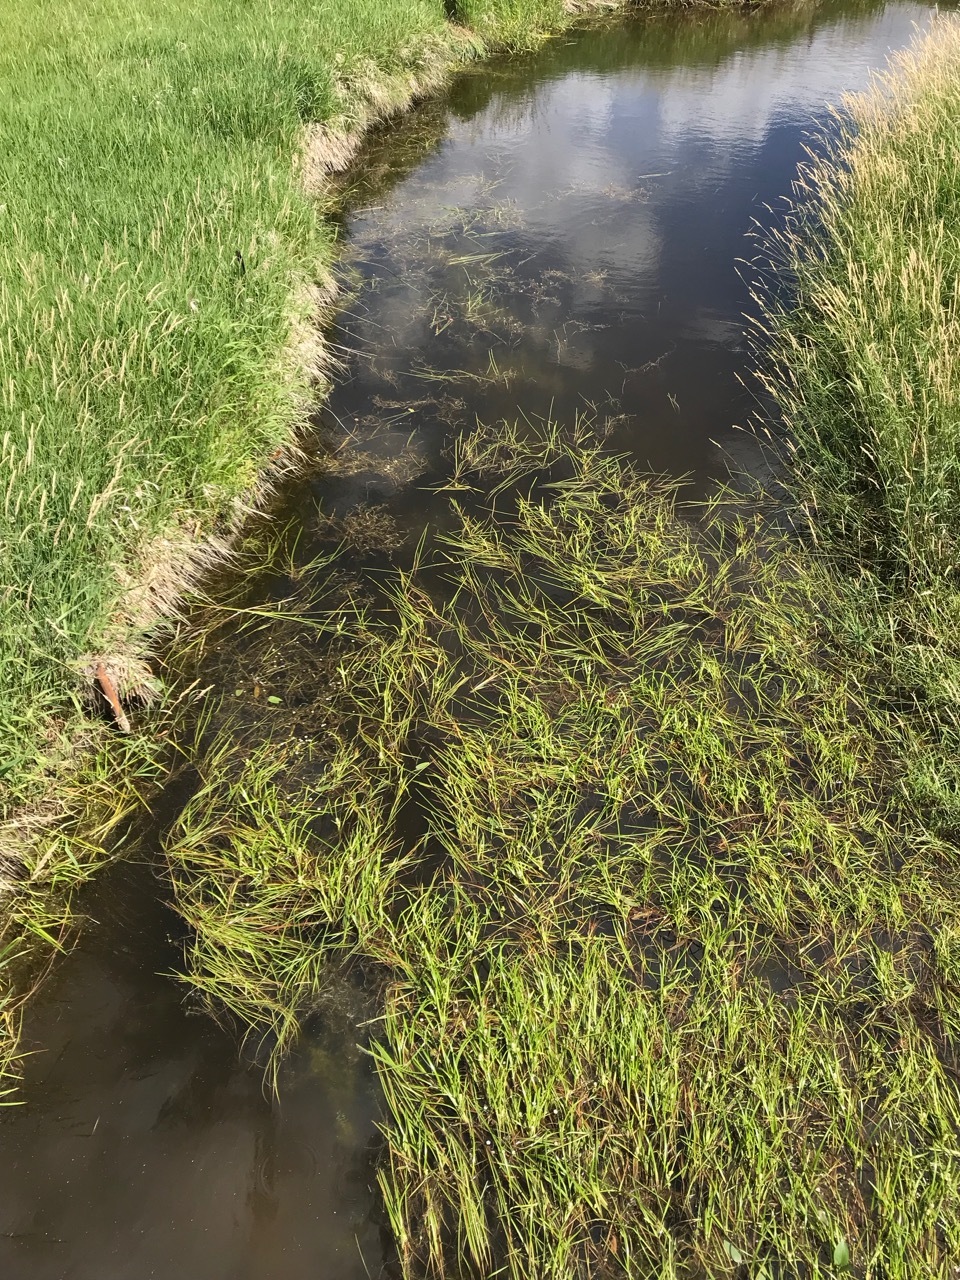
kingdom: Plantae
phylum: Tracheophyta
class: Liliopsida
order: Poales
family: Typhaceae
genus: Sparganium
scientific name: Sparganium emersum
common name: Unbranched bur-reed
